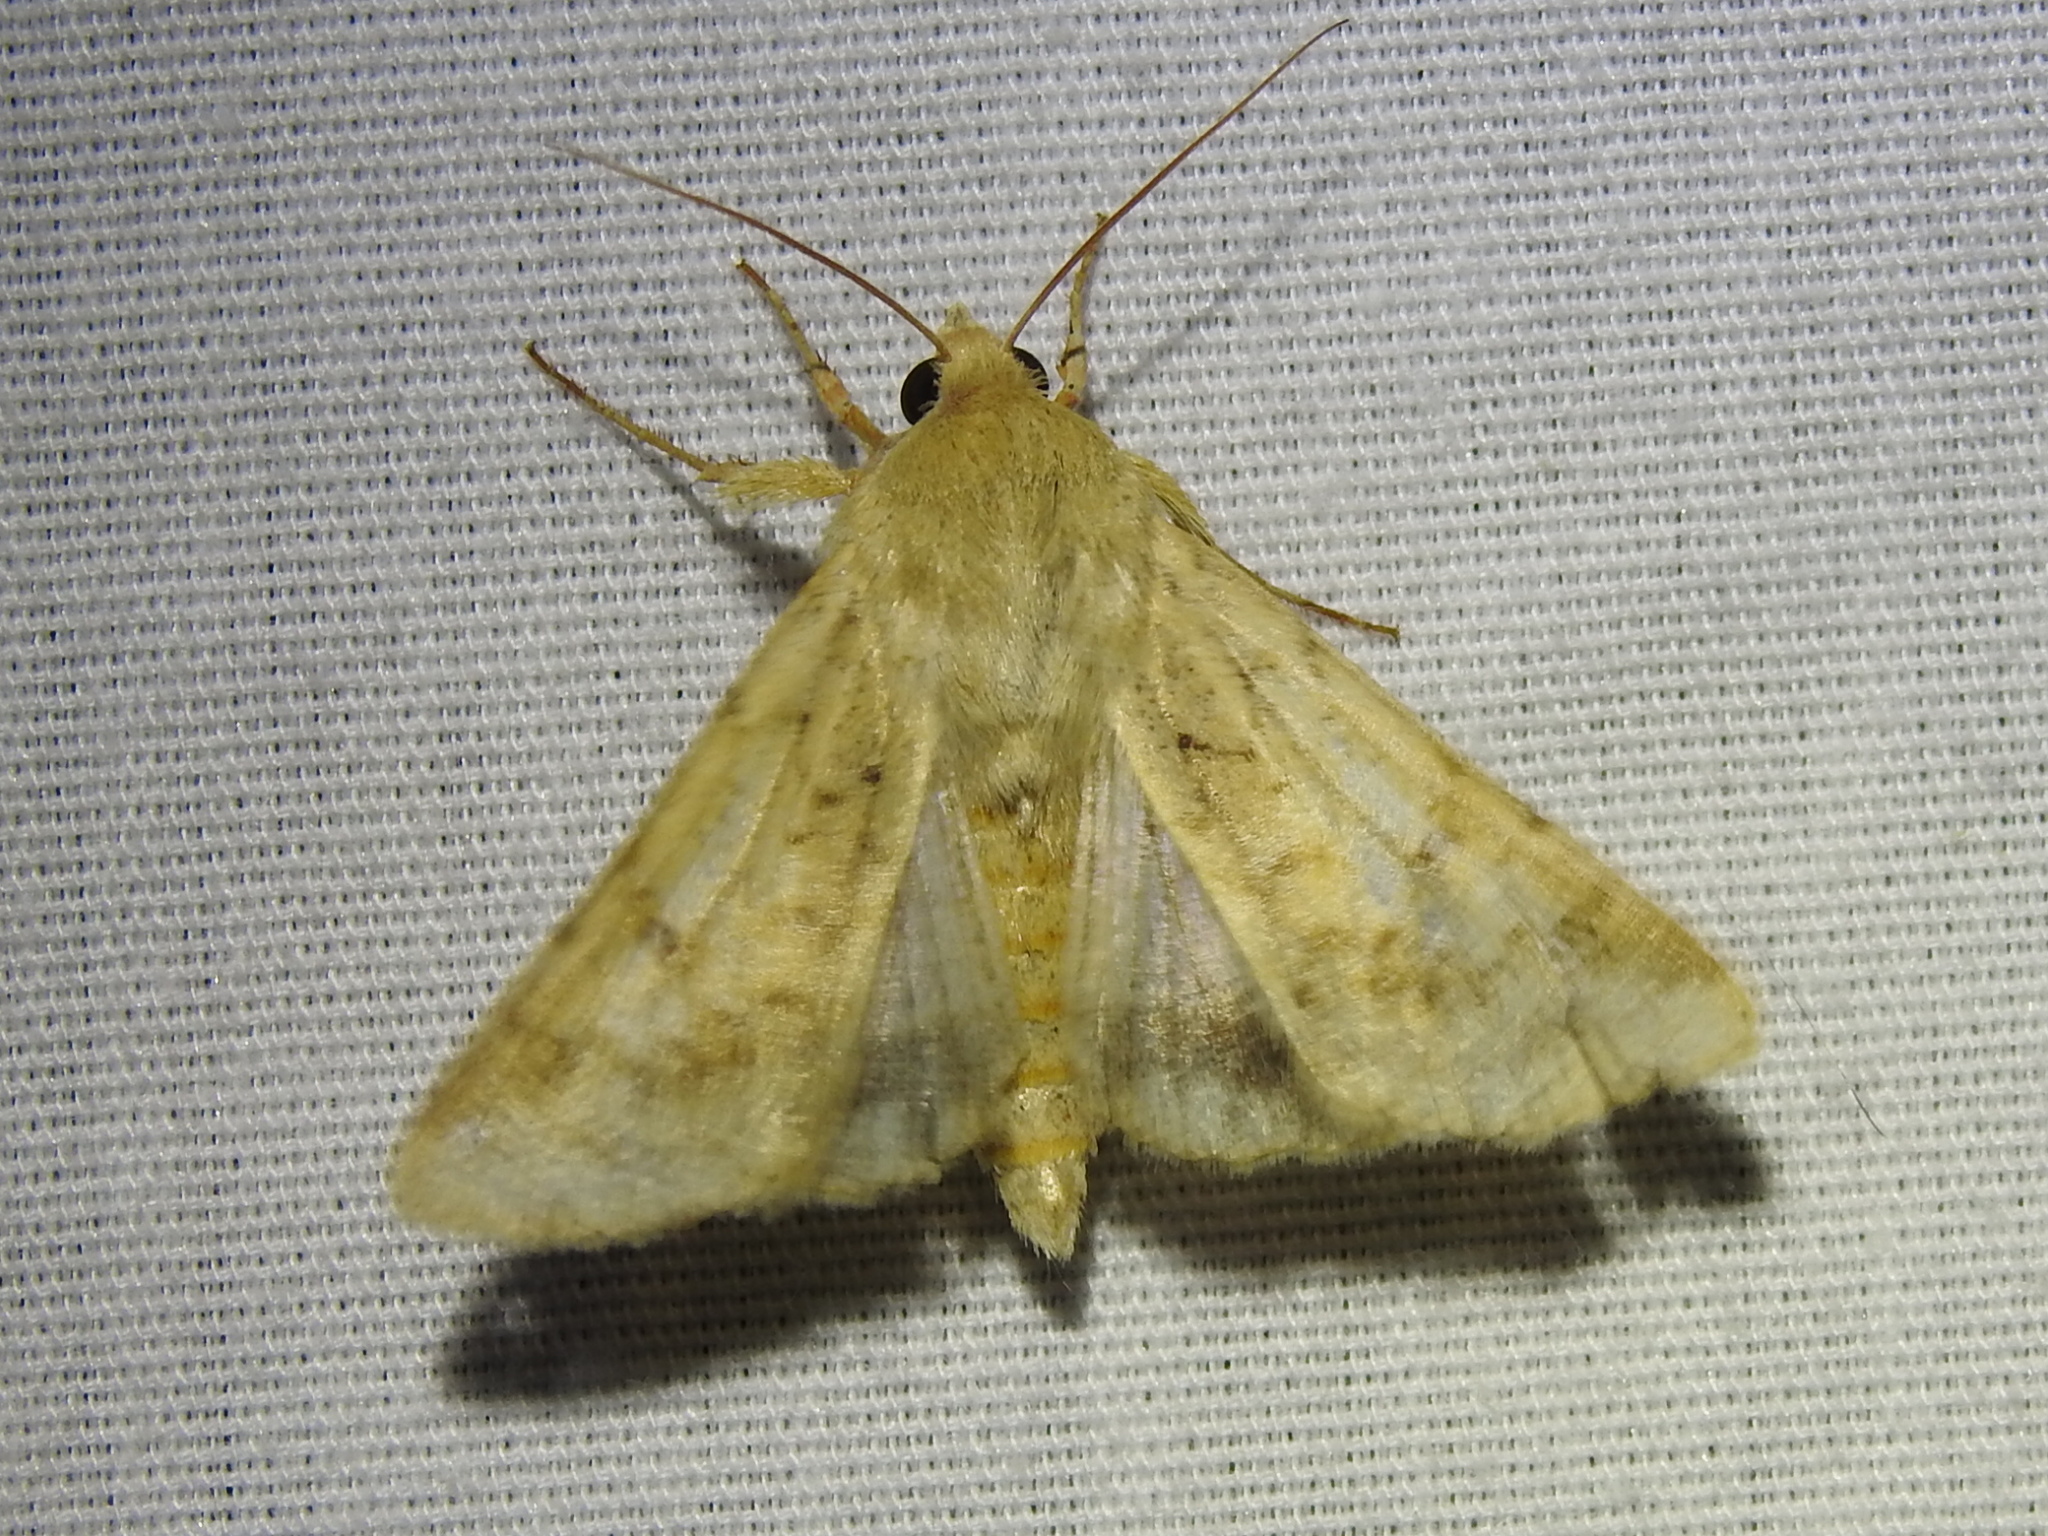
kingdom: Animalia
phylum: Arthropoda
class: Insecta
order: Lepidoptera
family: Noctuidae
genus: Helicoverpa
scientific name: Helicoverpa zea
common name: Bollworm
